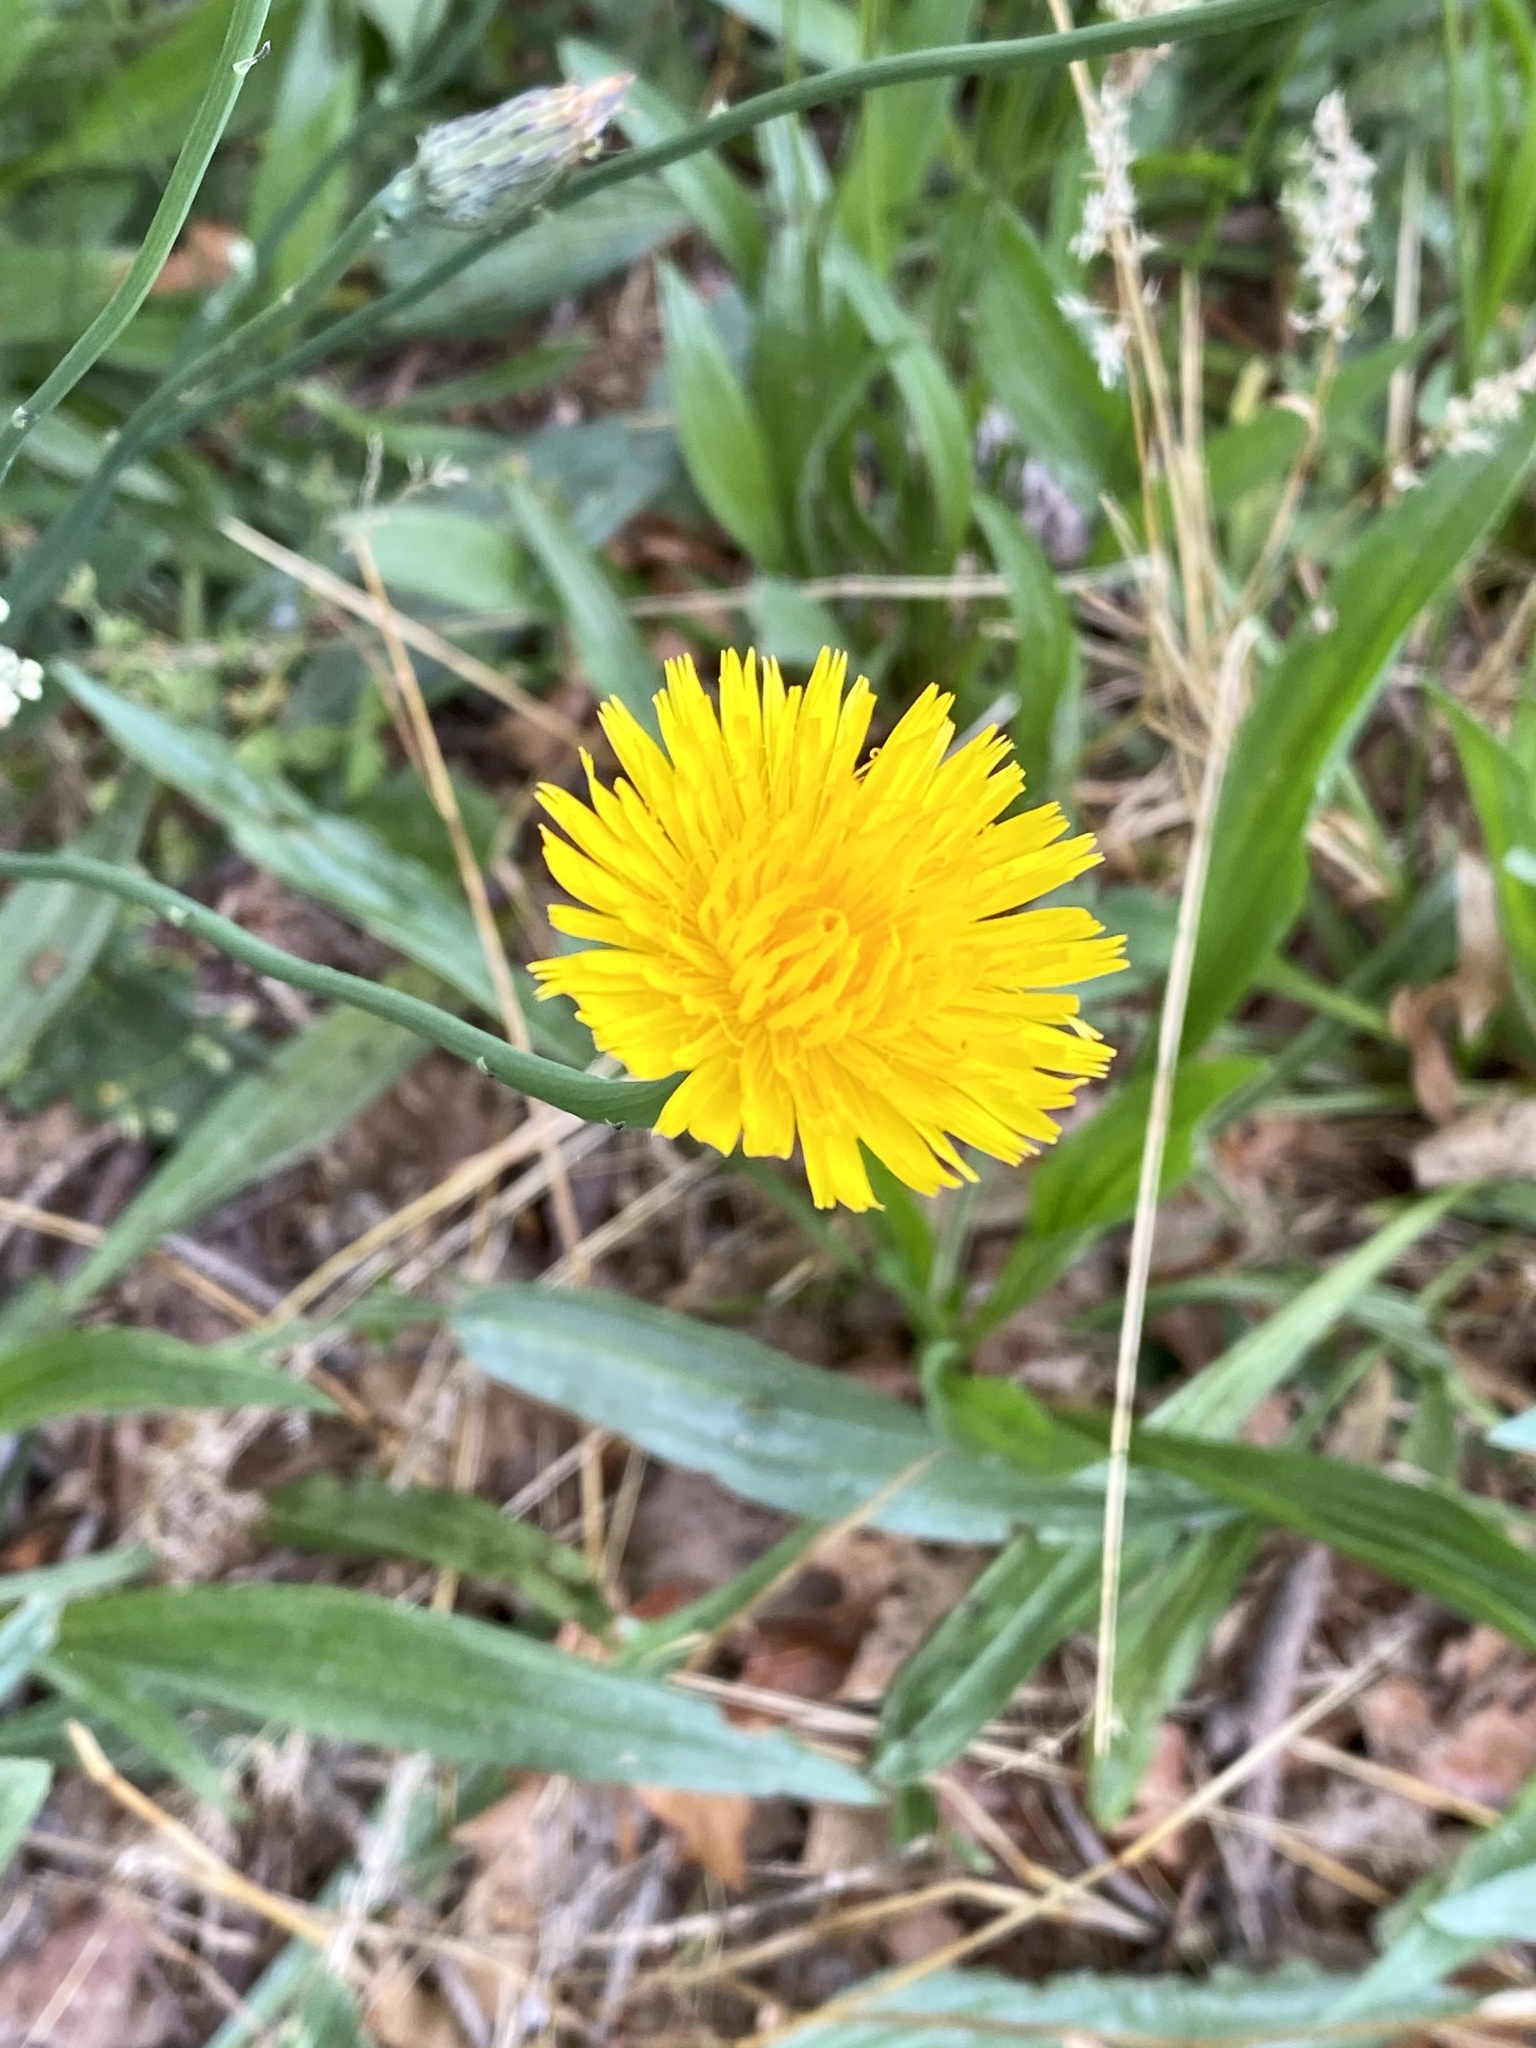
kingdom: Plantae
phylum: Tracheophyta
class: Magnoliopsida
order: Asterales
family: Asteraceae
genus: Hypochaeris
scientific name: Hypochaeris radicata
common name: Flatweed
